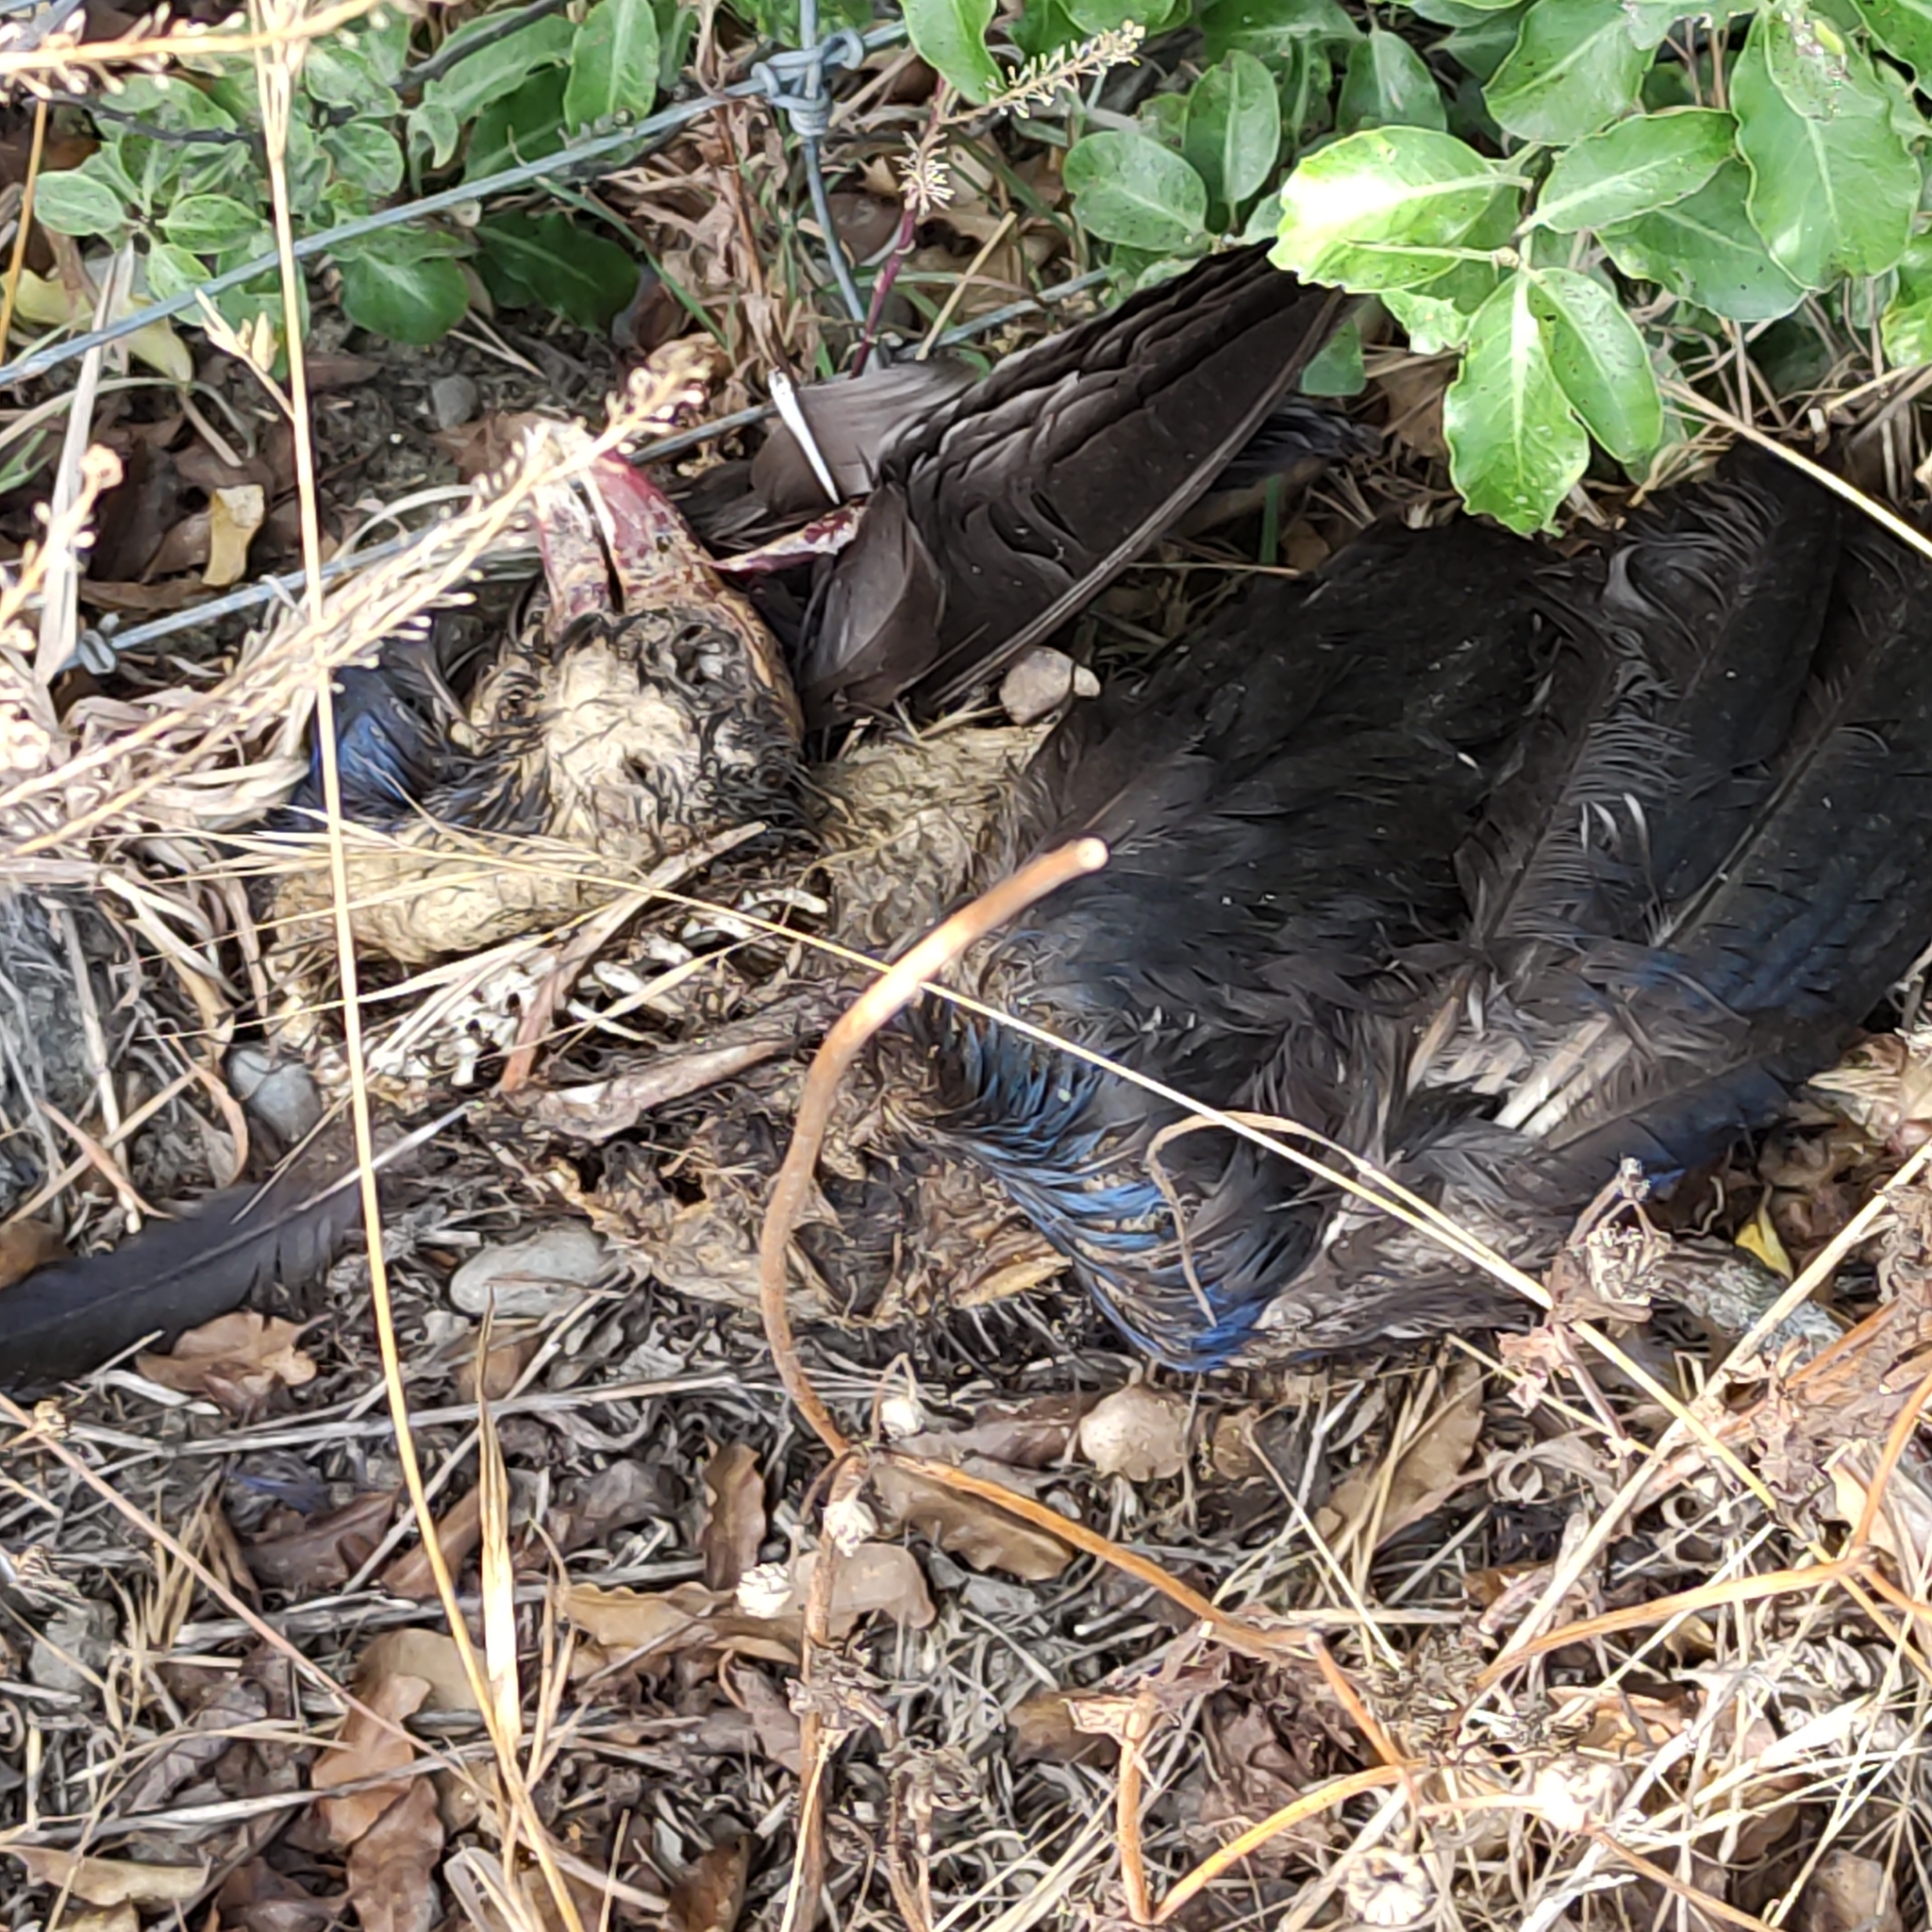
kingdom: Animalia
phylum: Chordata
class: Aves
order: Gruiformes
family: Rallidae
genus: Porphyrio
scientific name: Porphyrio melanotus
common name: Australasian swamphen
